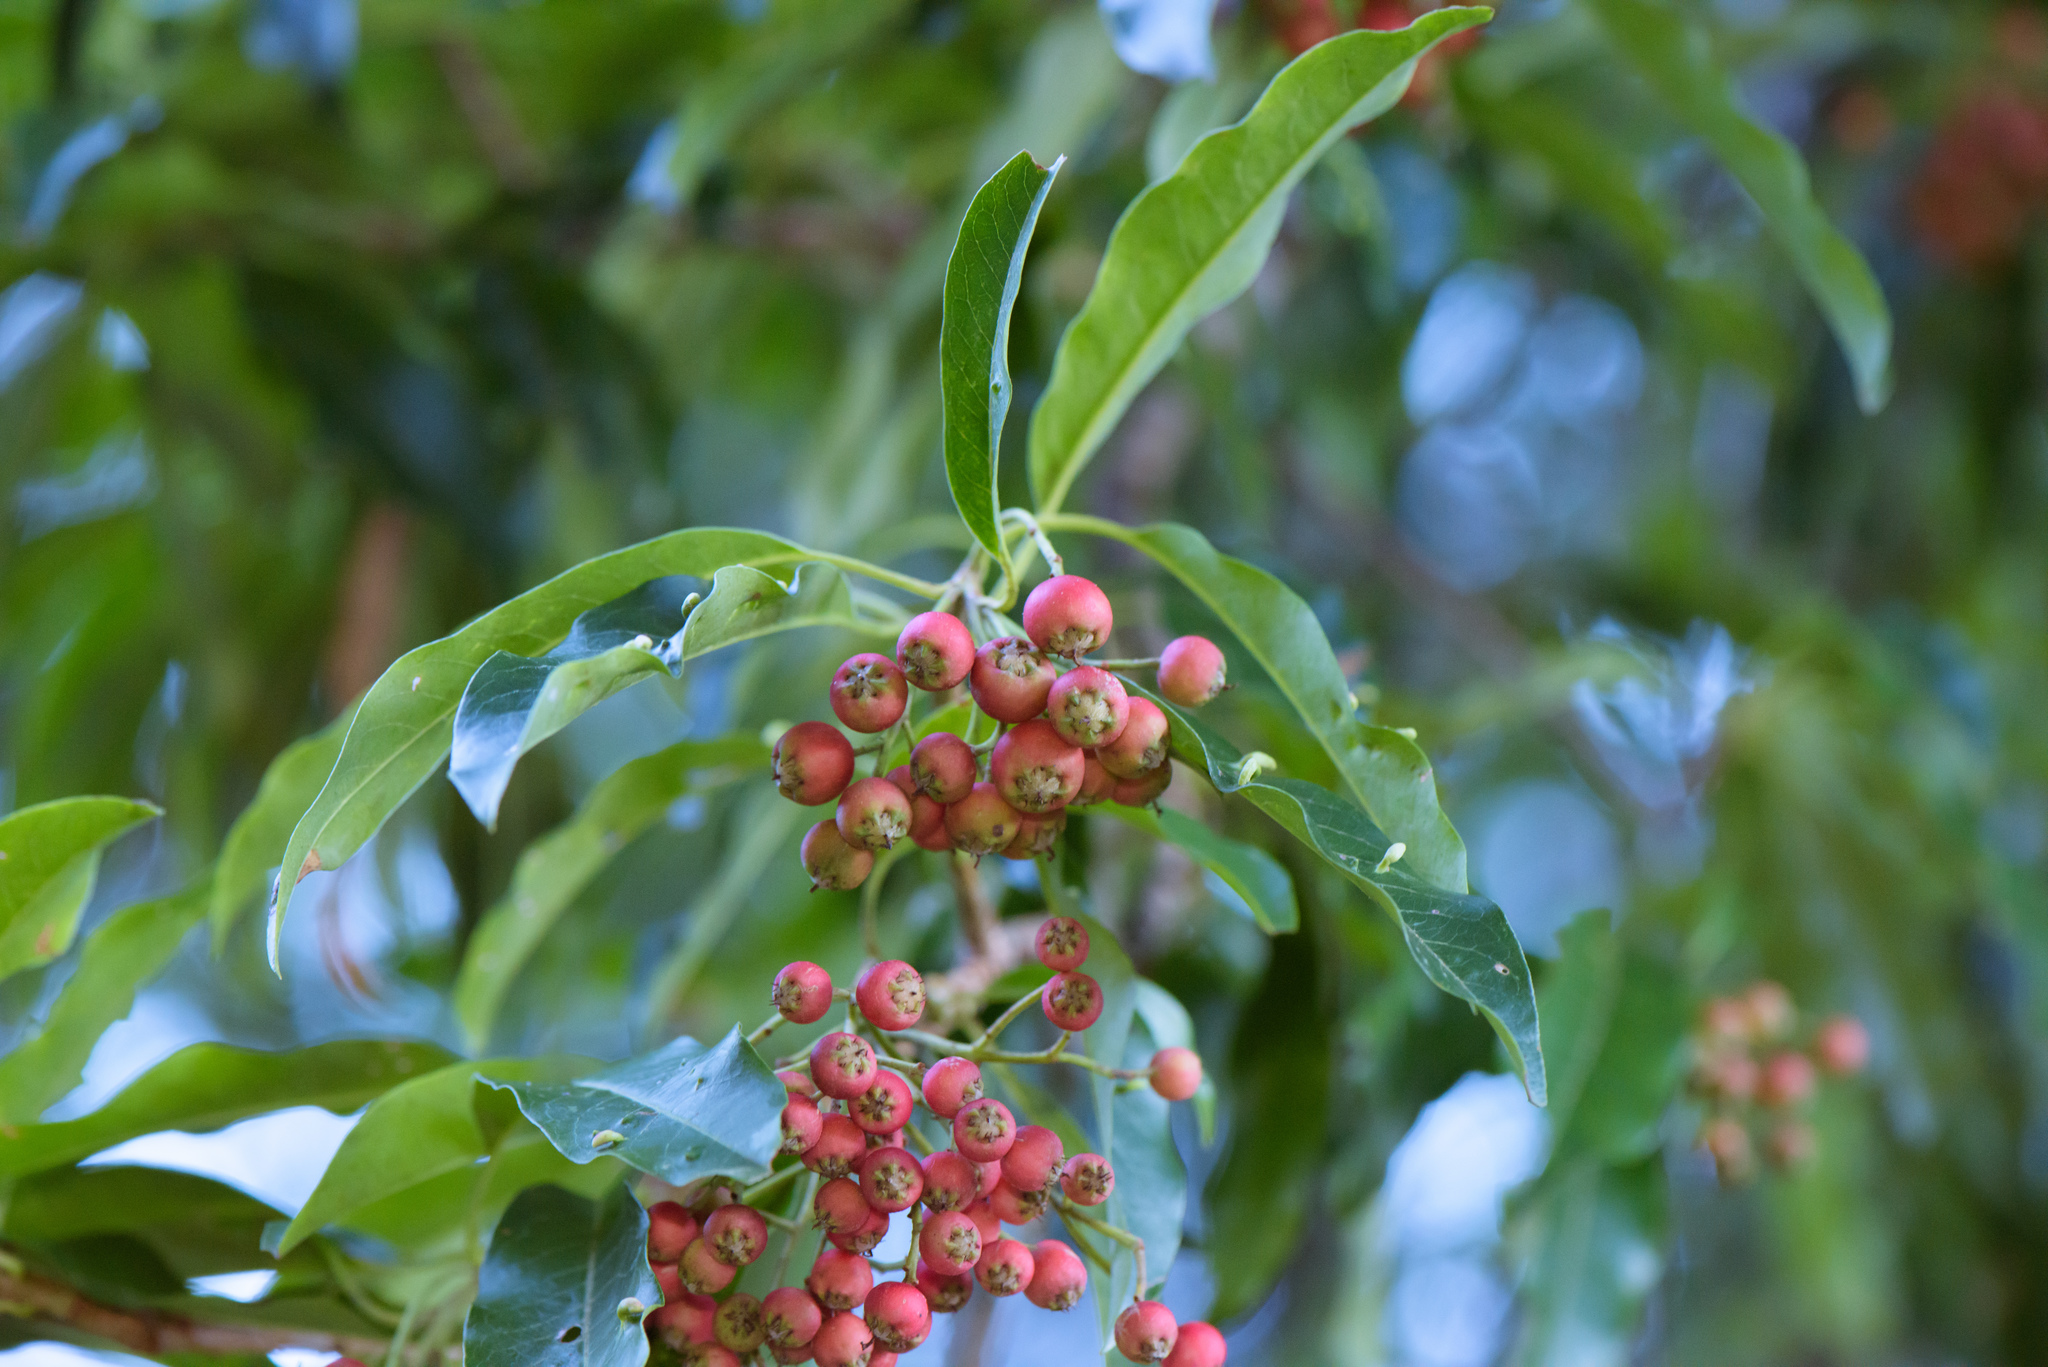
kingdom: Plantae
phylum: Tracheophyta
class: Magnoliopsida
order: Rosales
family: Rosaceae
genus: Stranvaesia
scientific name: Stranvaesia davidiana
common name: Chinese photinia
